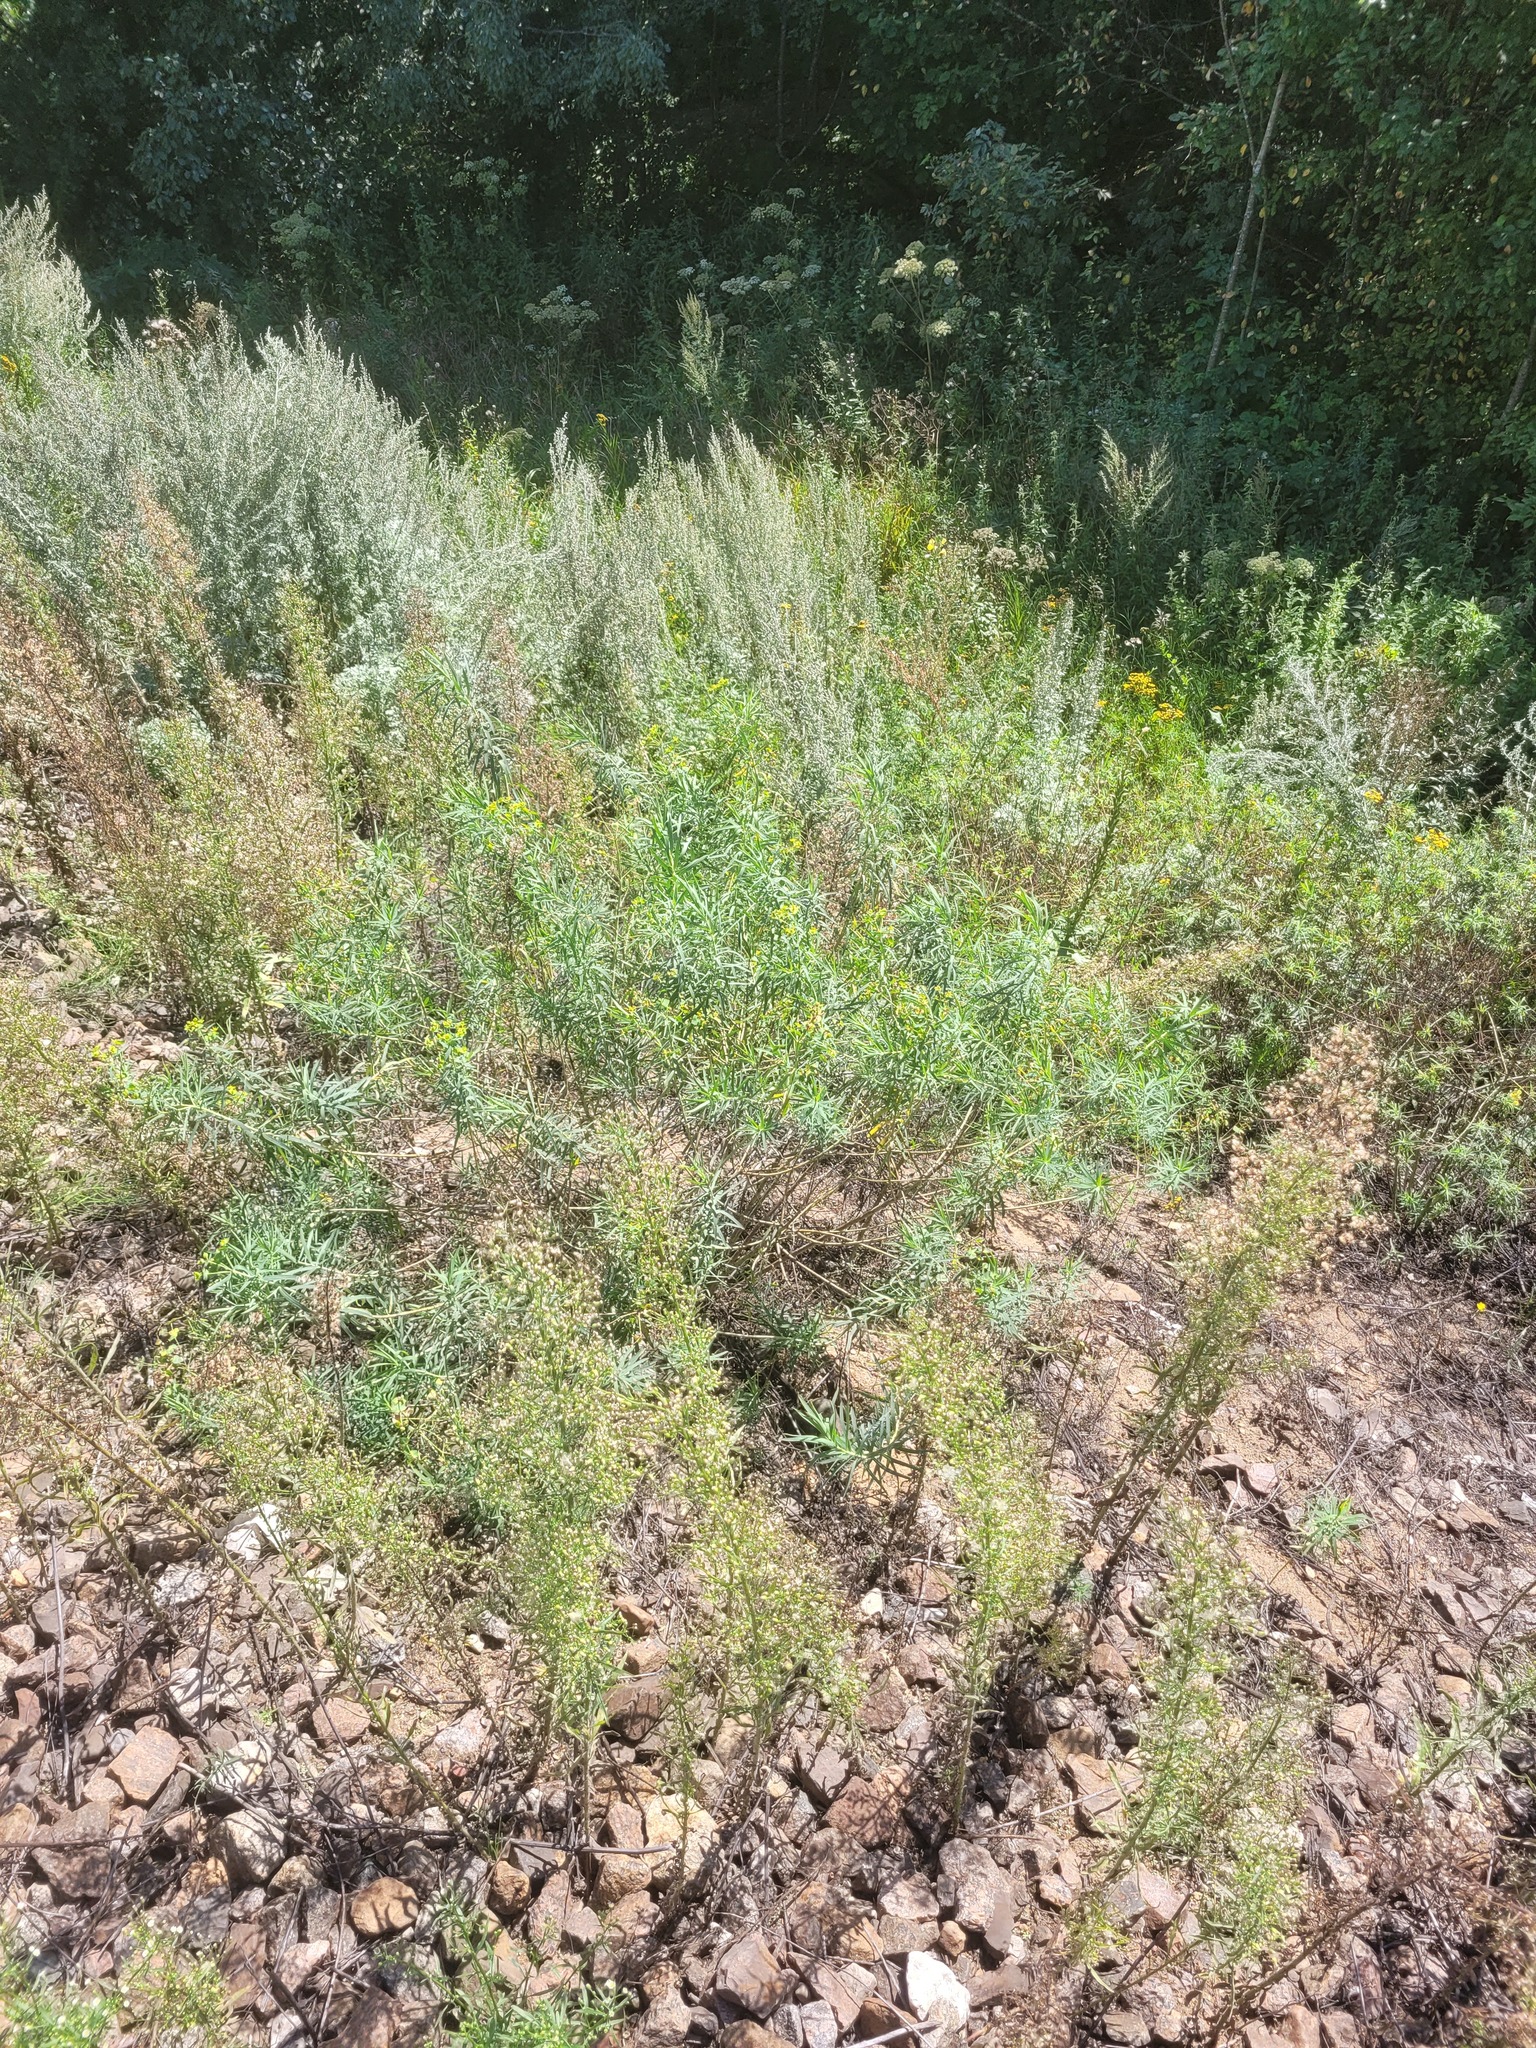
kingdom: Plantae
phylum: Tracheophyta
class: Magnoliopsida
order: Malpighiales
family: Euphorbiaceae
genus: Euphorbia
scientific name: Euphorbia virgata
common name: Leafy spurge
